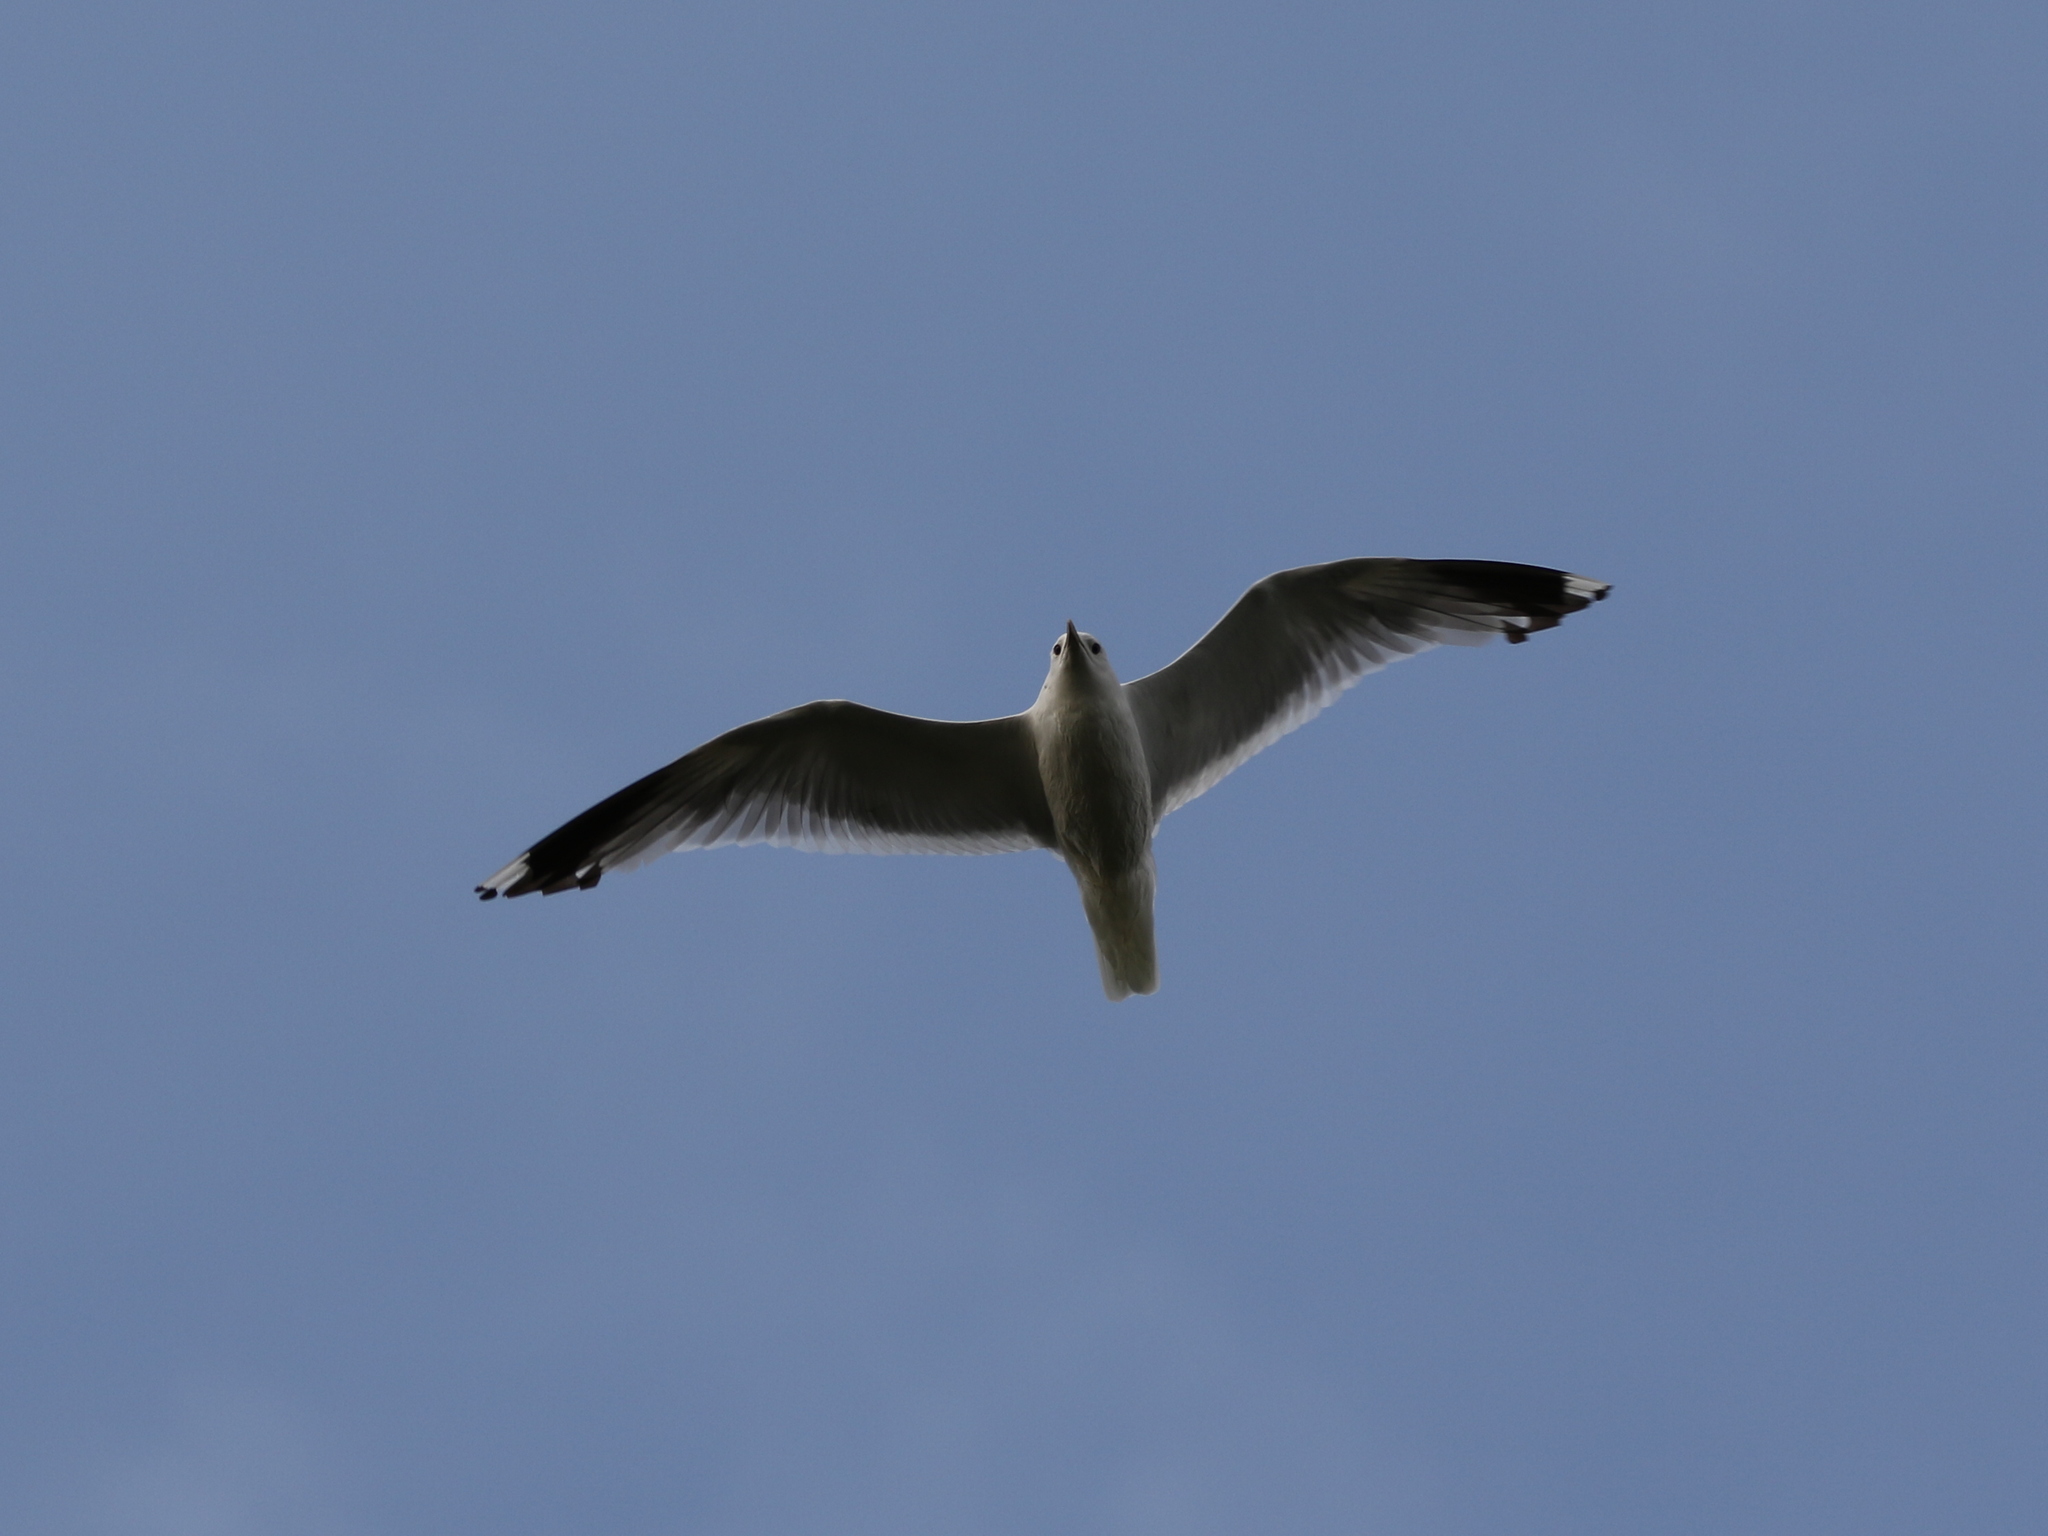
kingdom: Animalia
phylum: Chordata
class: Aves
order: Charadriiformes
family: Laridae
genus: Larus
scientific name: Larus canus
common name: Mew gull
